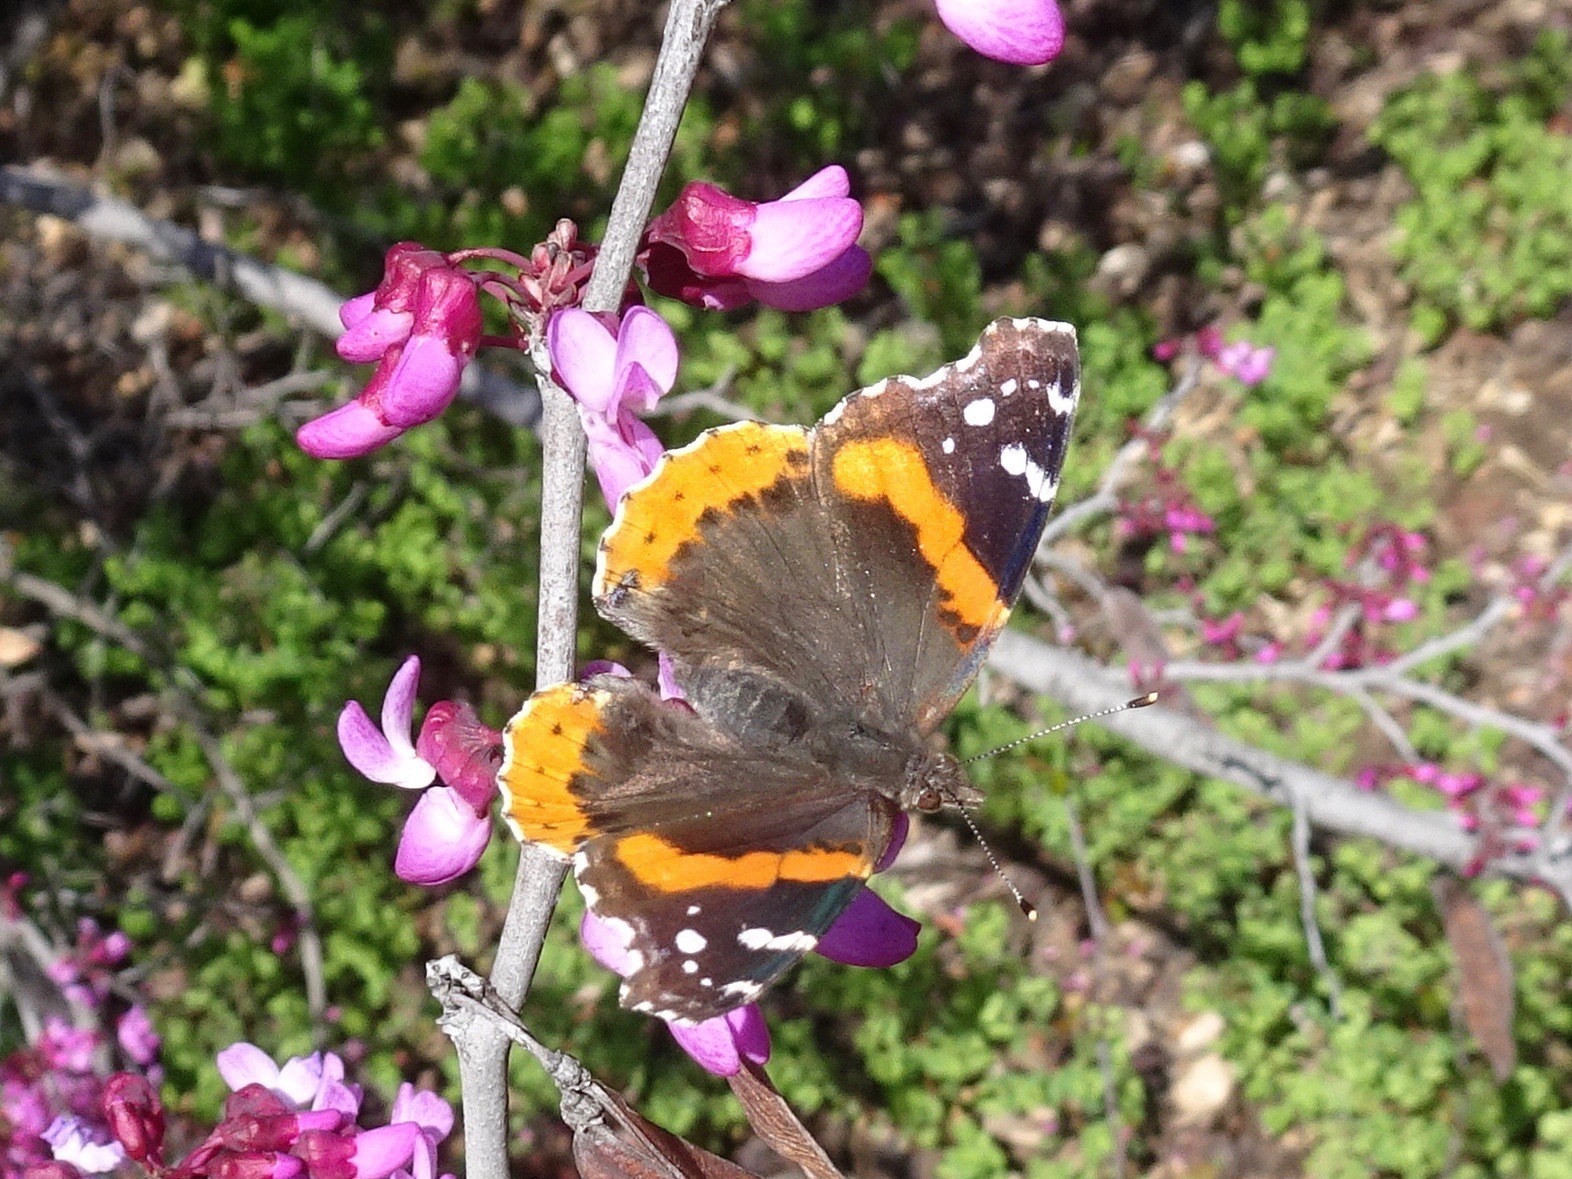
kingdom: Animalia
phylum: Arthropoda
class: Insecta
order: Lepidoptera
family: Nymphalidae
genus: Vanessa
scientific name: Vanessa atalanta
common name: Red admiral
